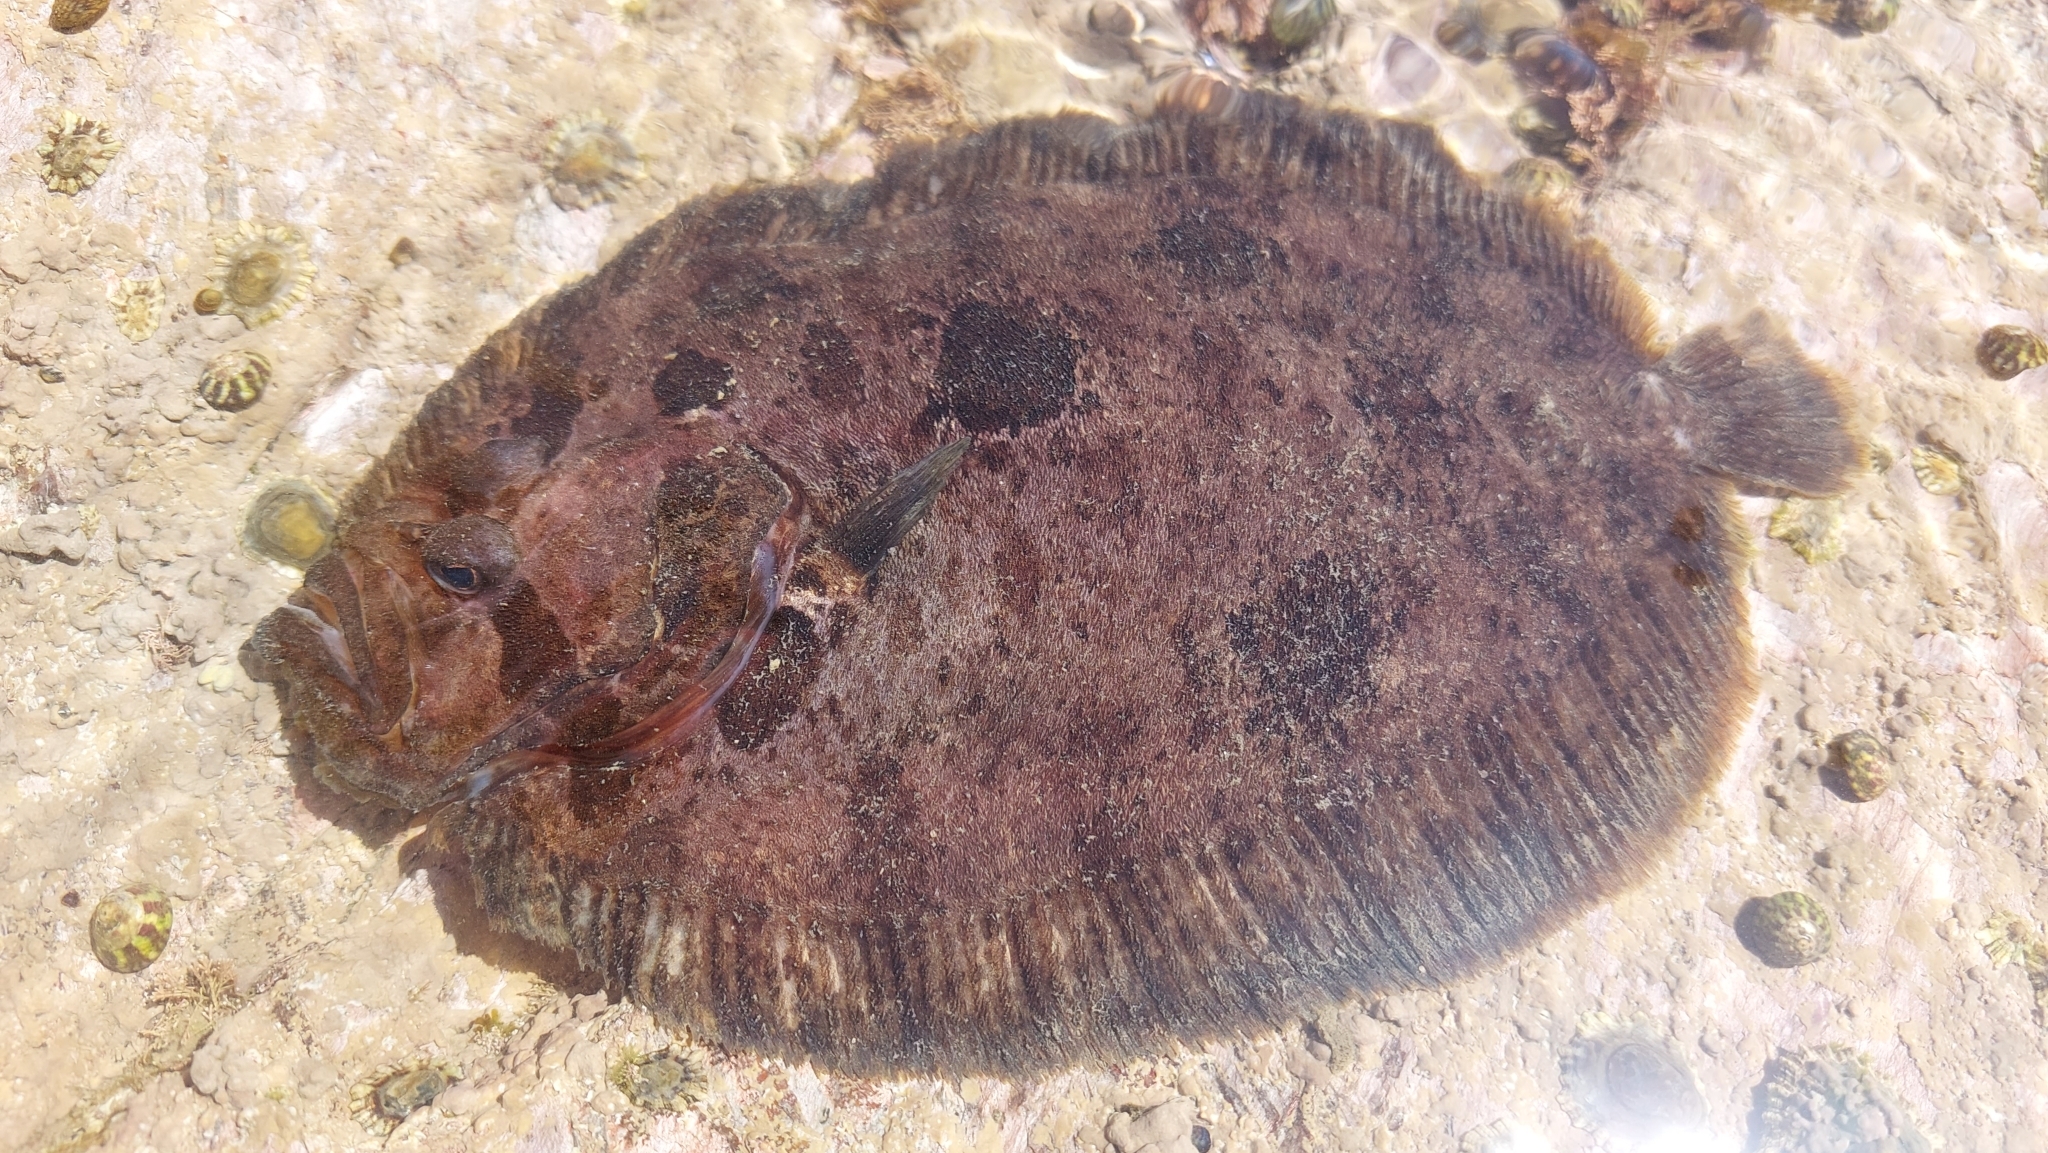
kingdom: Animalia
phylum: Chordata
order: Pleuronectiformes
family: Scophthalmidae
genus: Zeugopterus
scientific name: Zeugopterus punctatus
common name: Topknot
